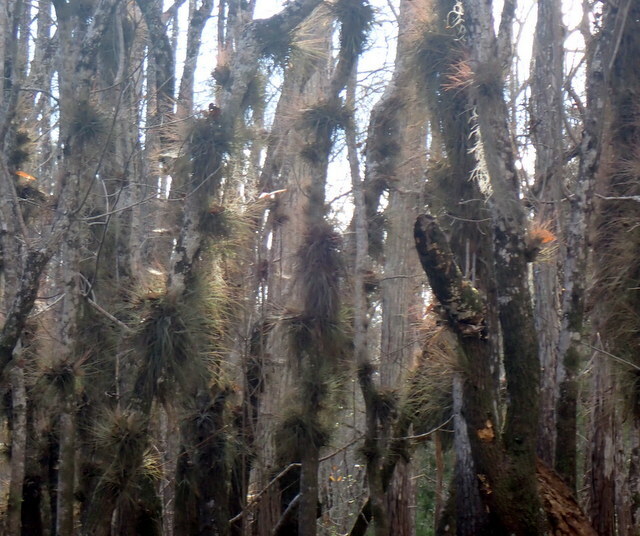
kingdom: Plantae
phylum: Tracheophyta
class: Liliopsida
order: Poales
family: Bromeliaceae
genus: Tillandsia
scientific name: Tillandsia bartramii
